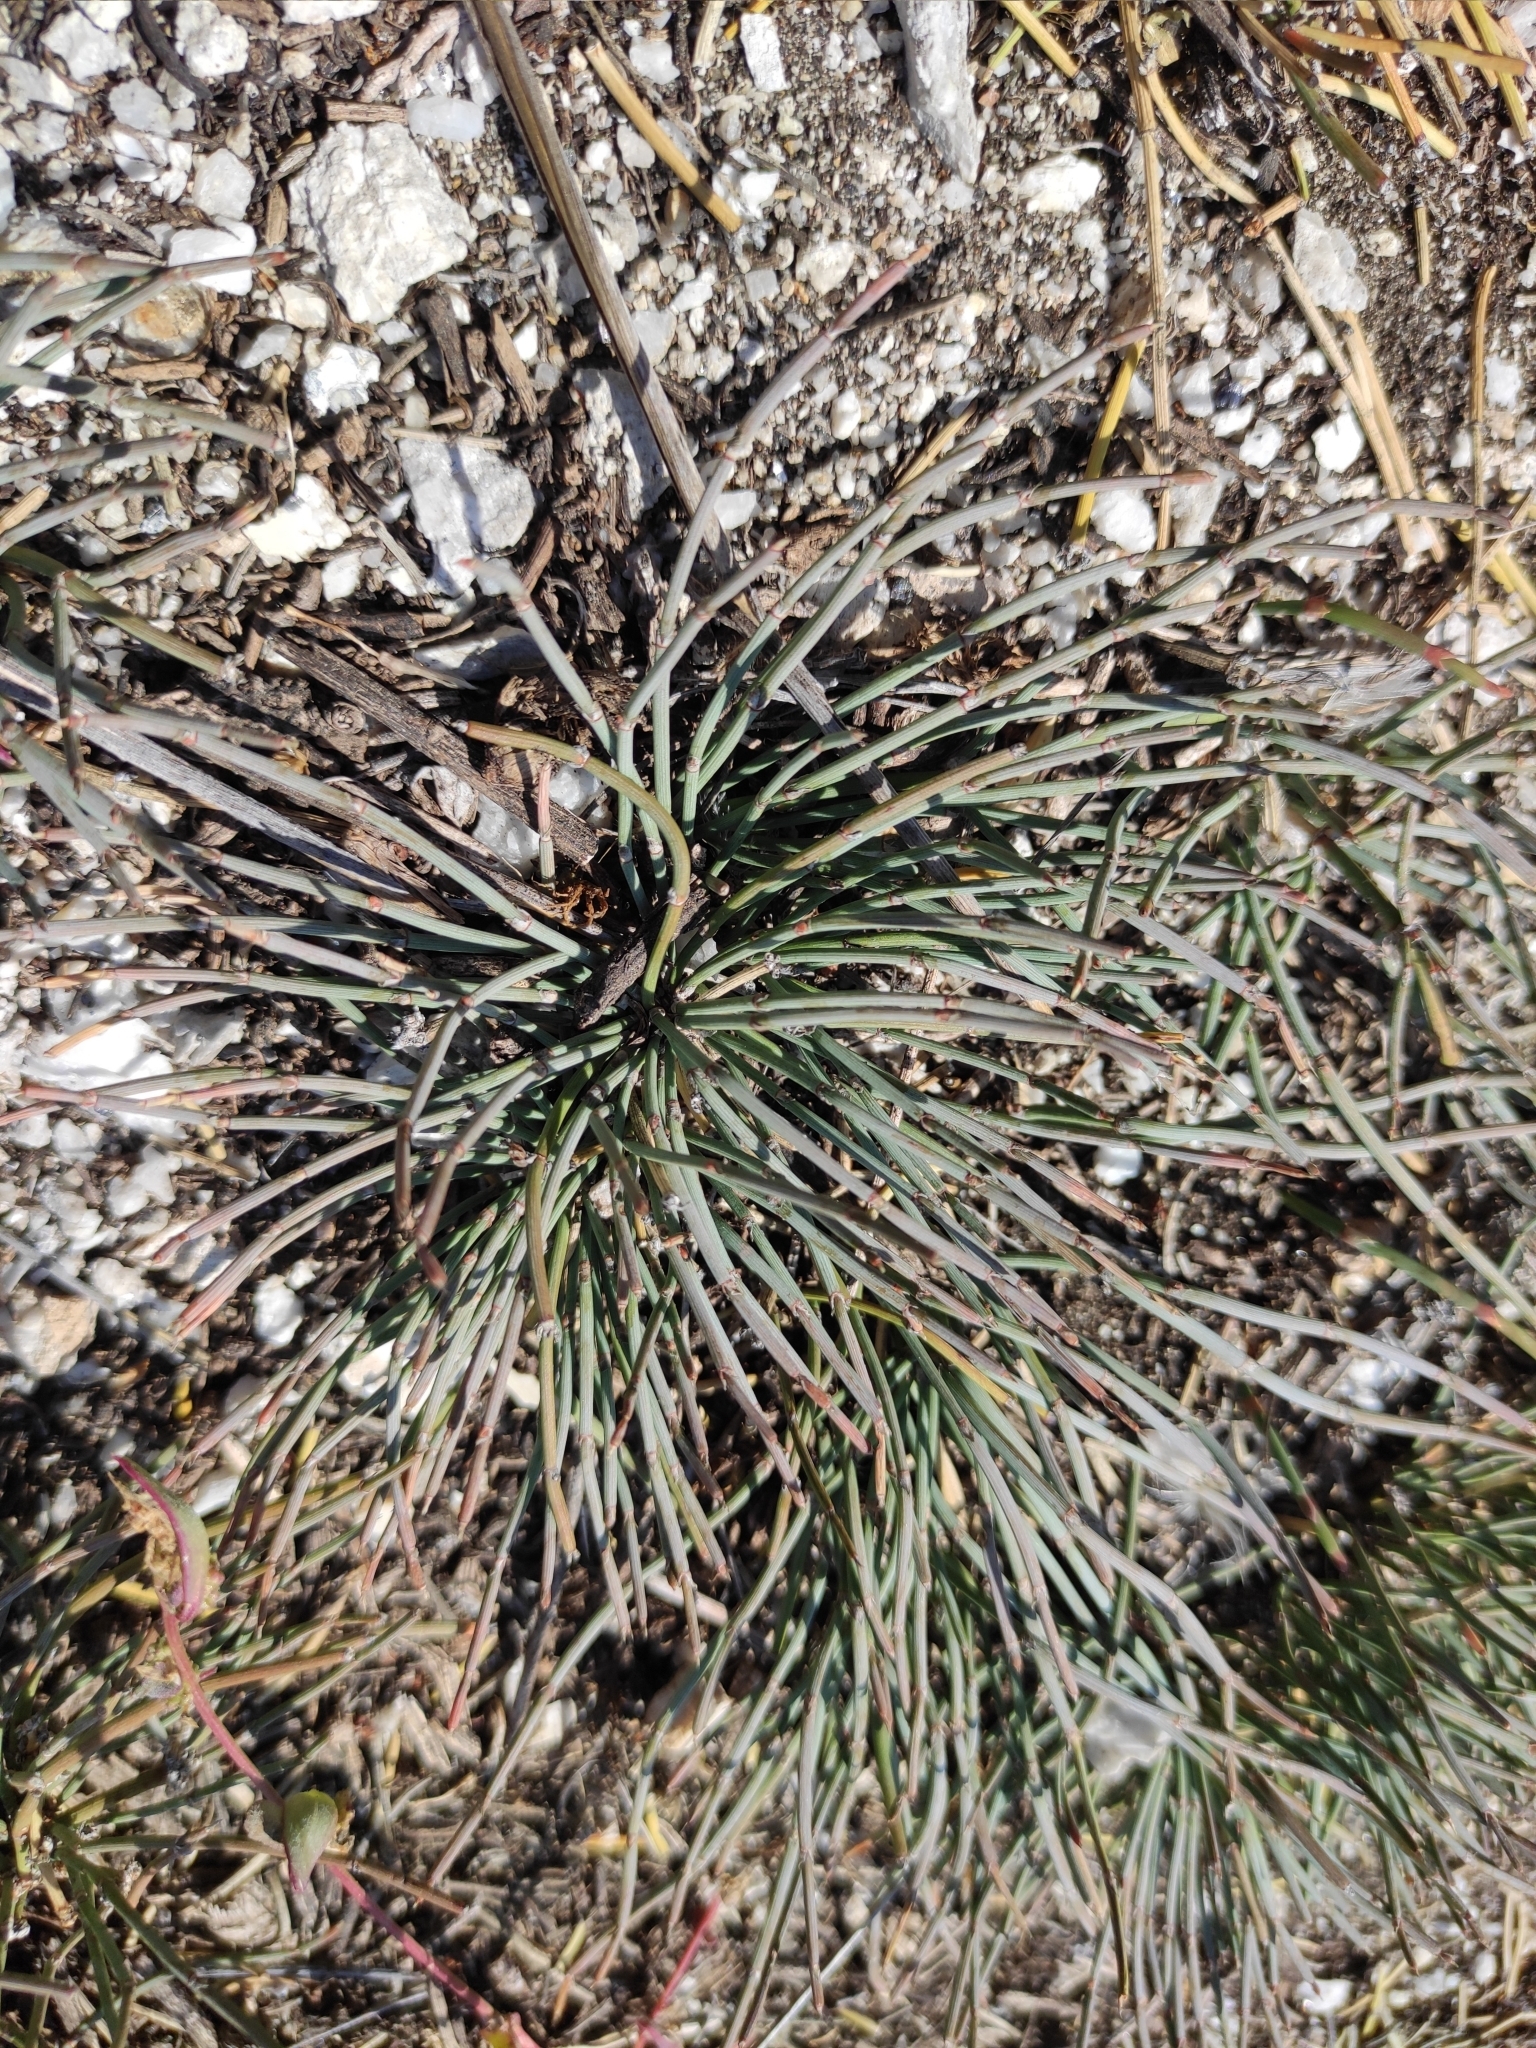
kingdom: Plantae
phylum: Tracheophyta
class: Gnetopsida
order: Ephedrales
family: Ephedraceae
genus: Ephedra
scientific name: Ephedra monosperma
